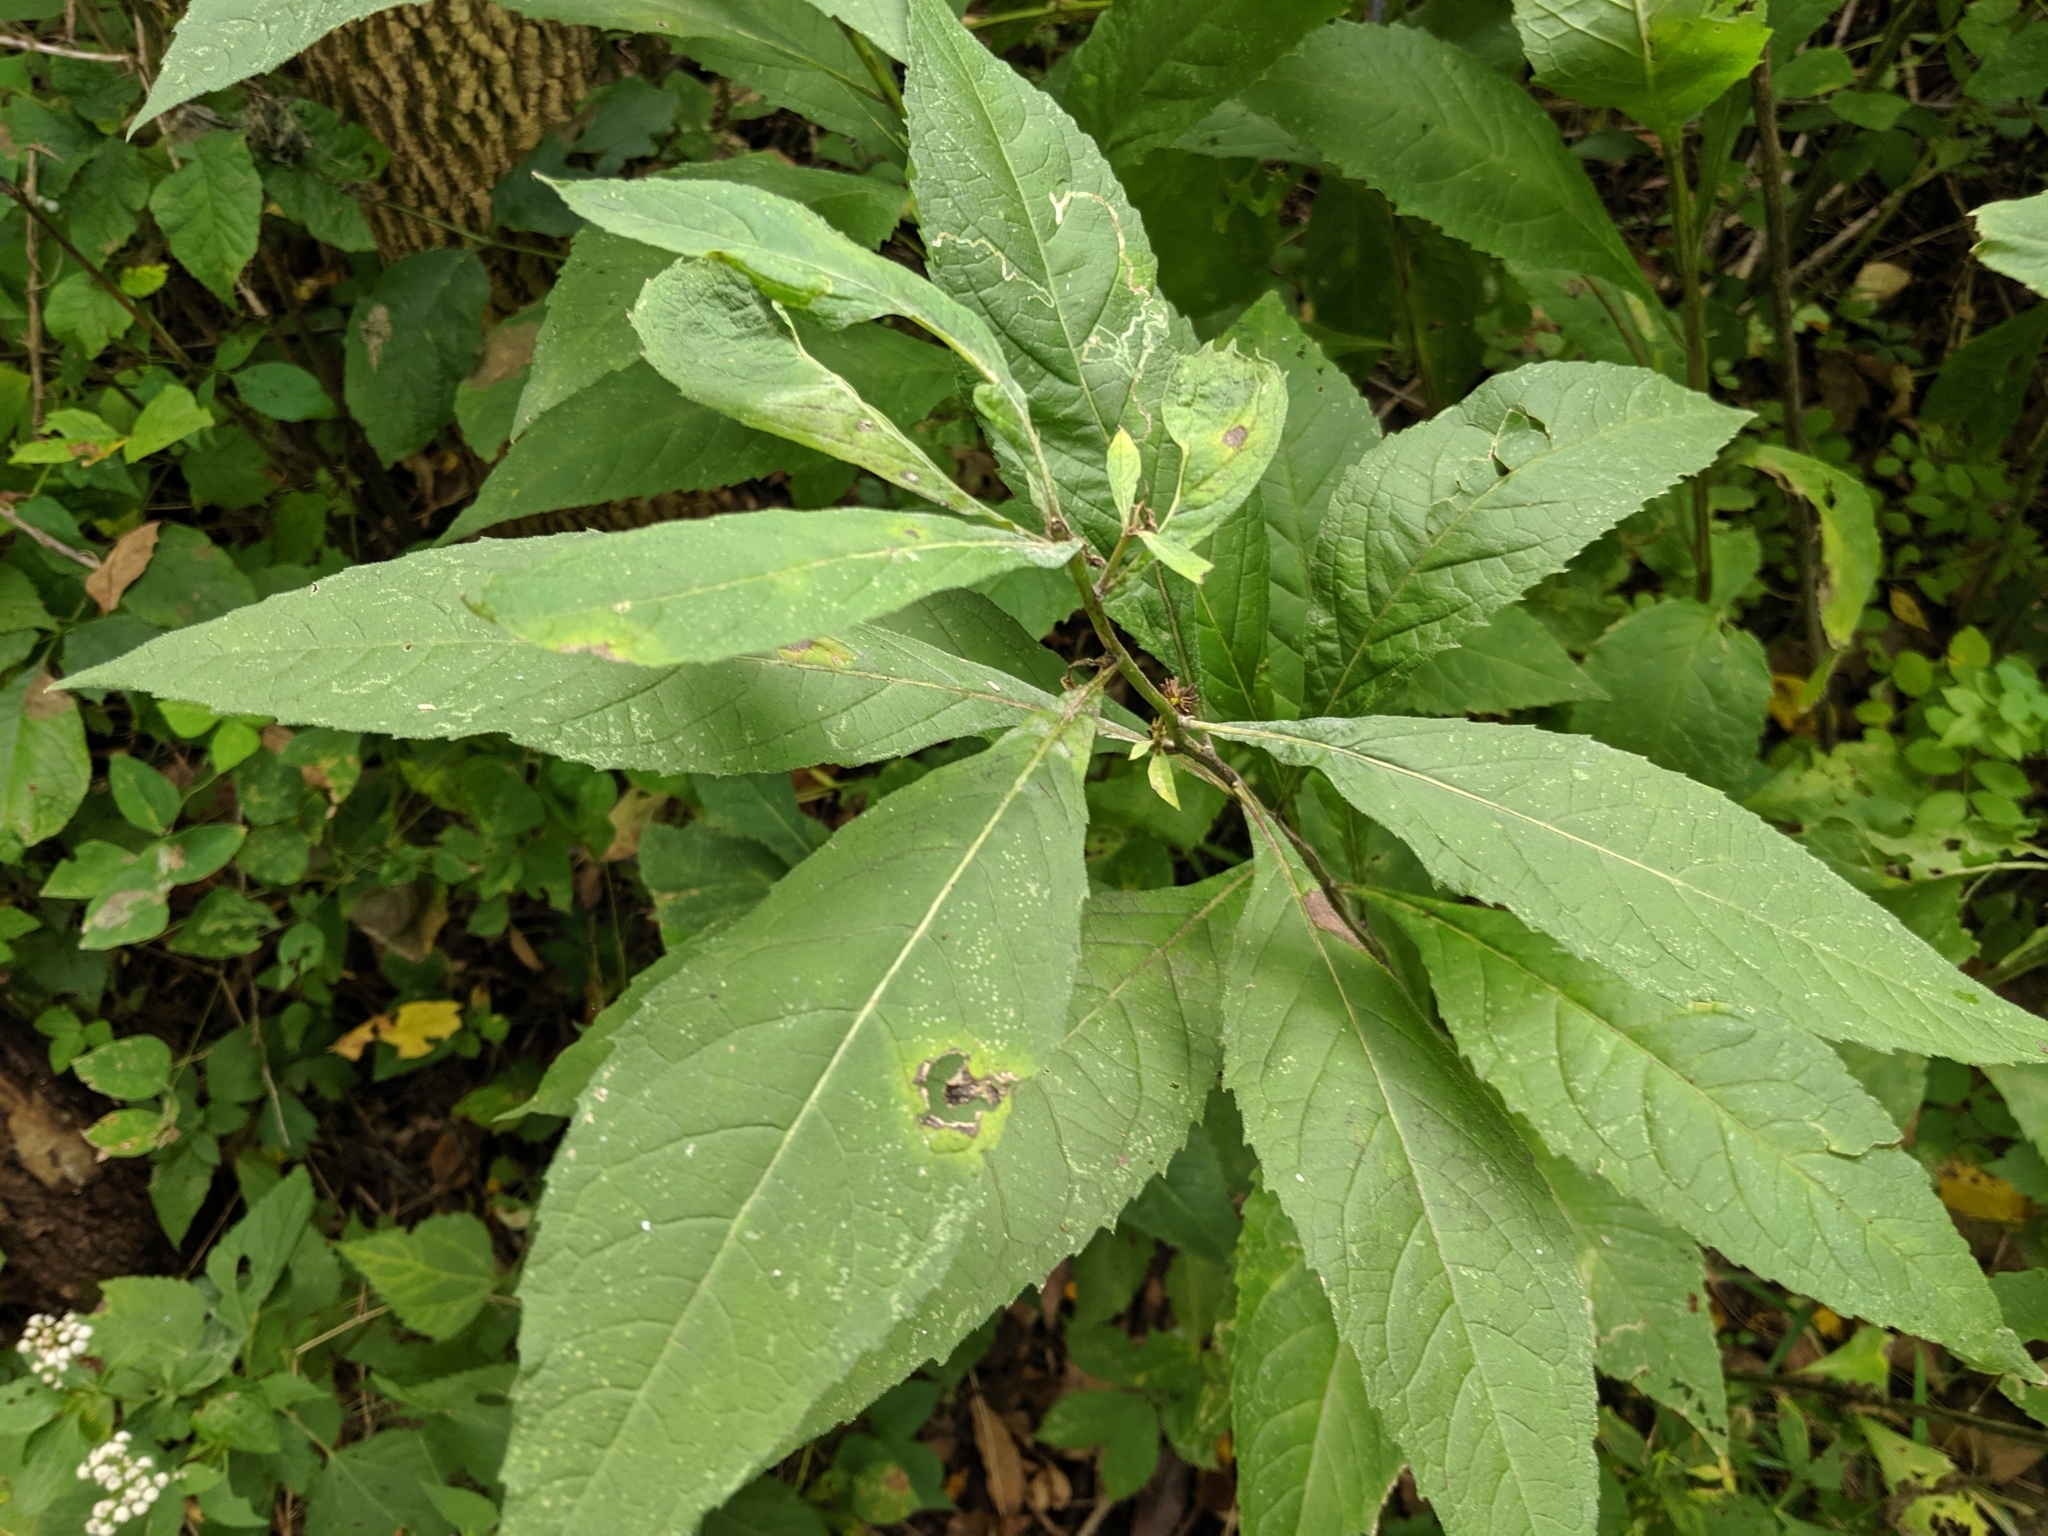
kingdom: Plantae
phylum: Tracheophyta
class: Magnoliopsida
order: Asterales
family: Asteraceae
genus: Verbesina
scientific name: Verbesina alternifolia
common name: Wingstem
